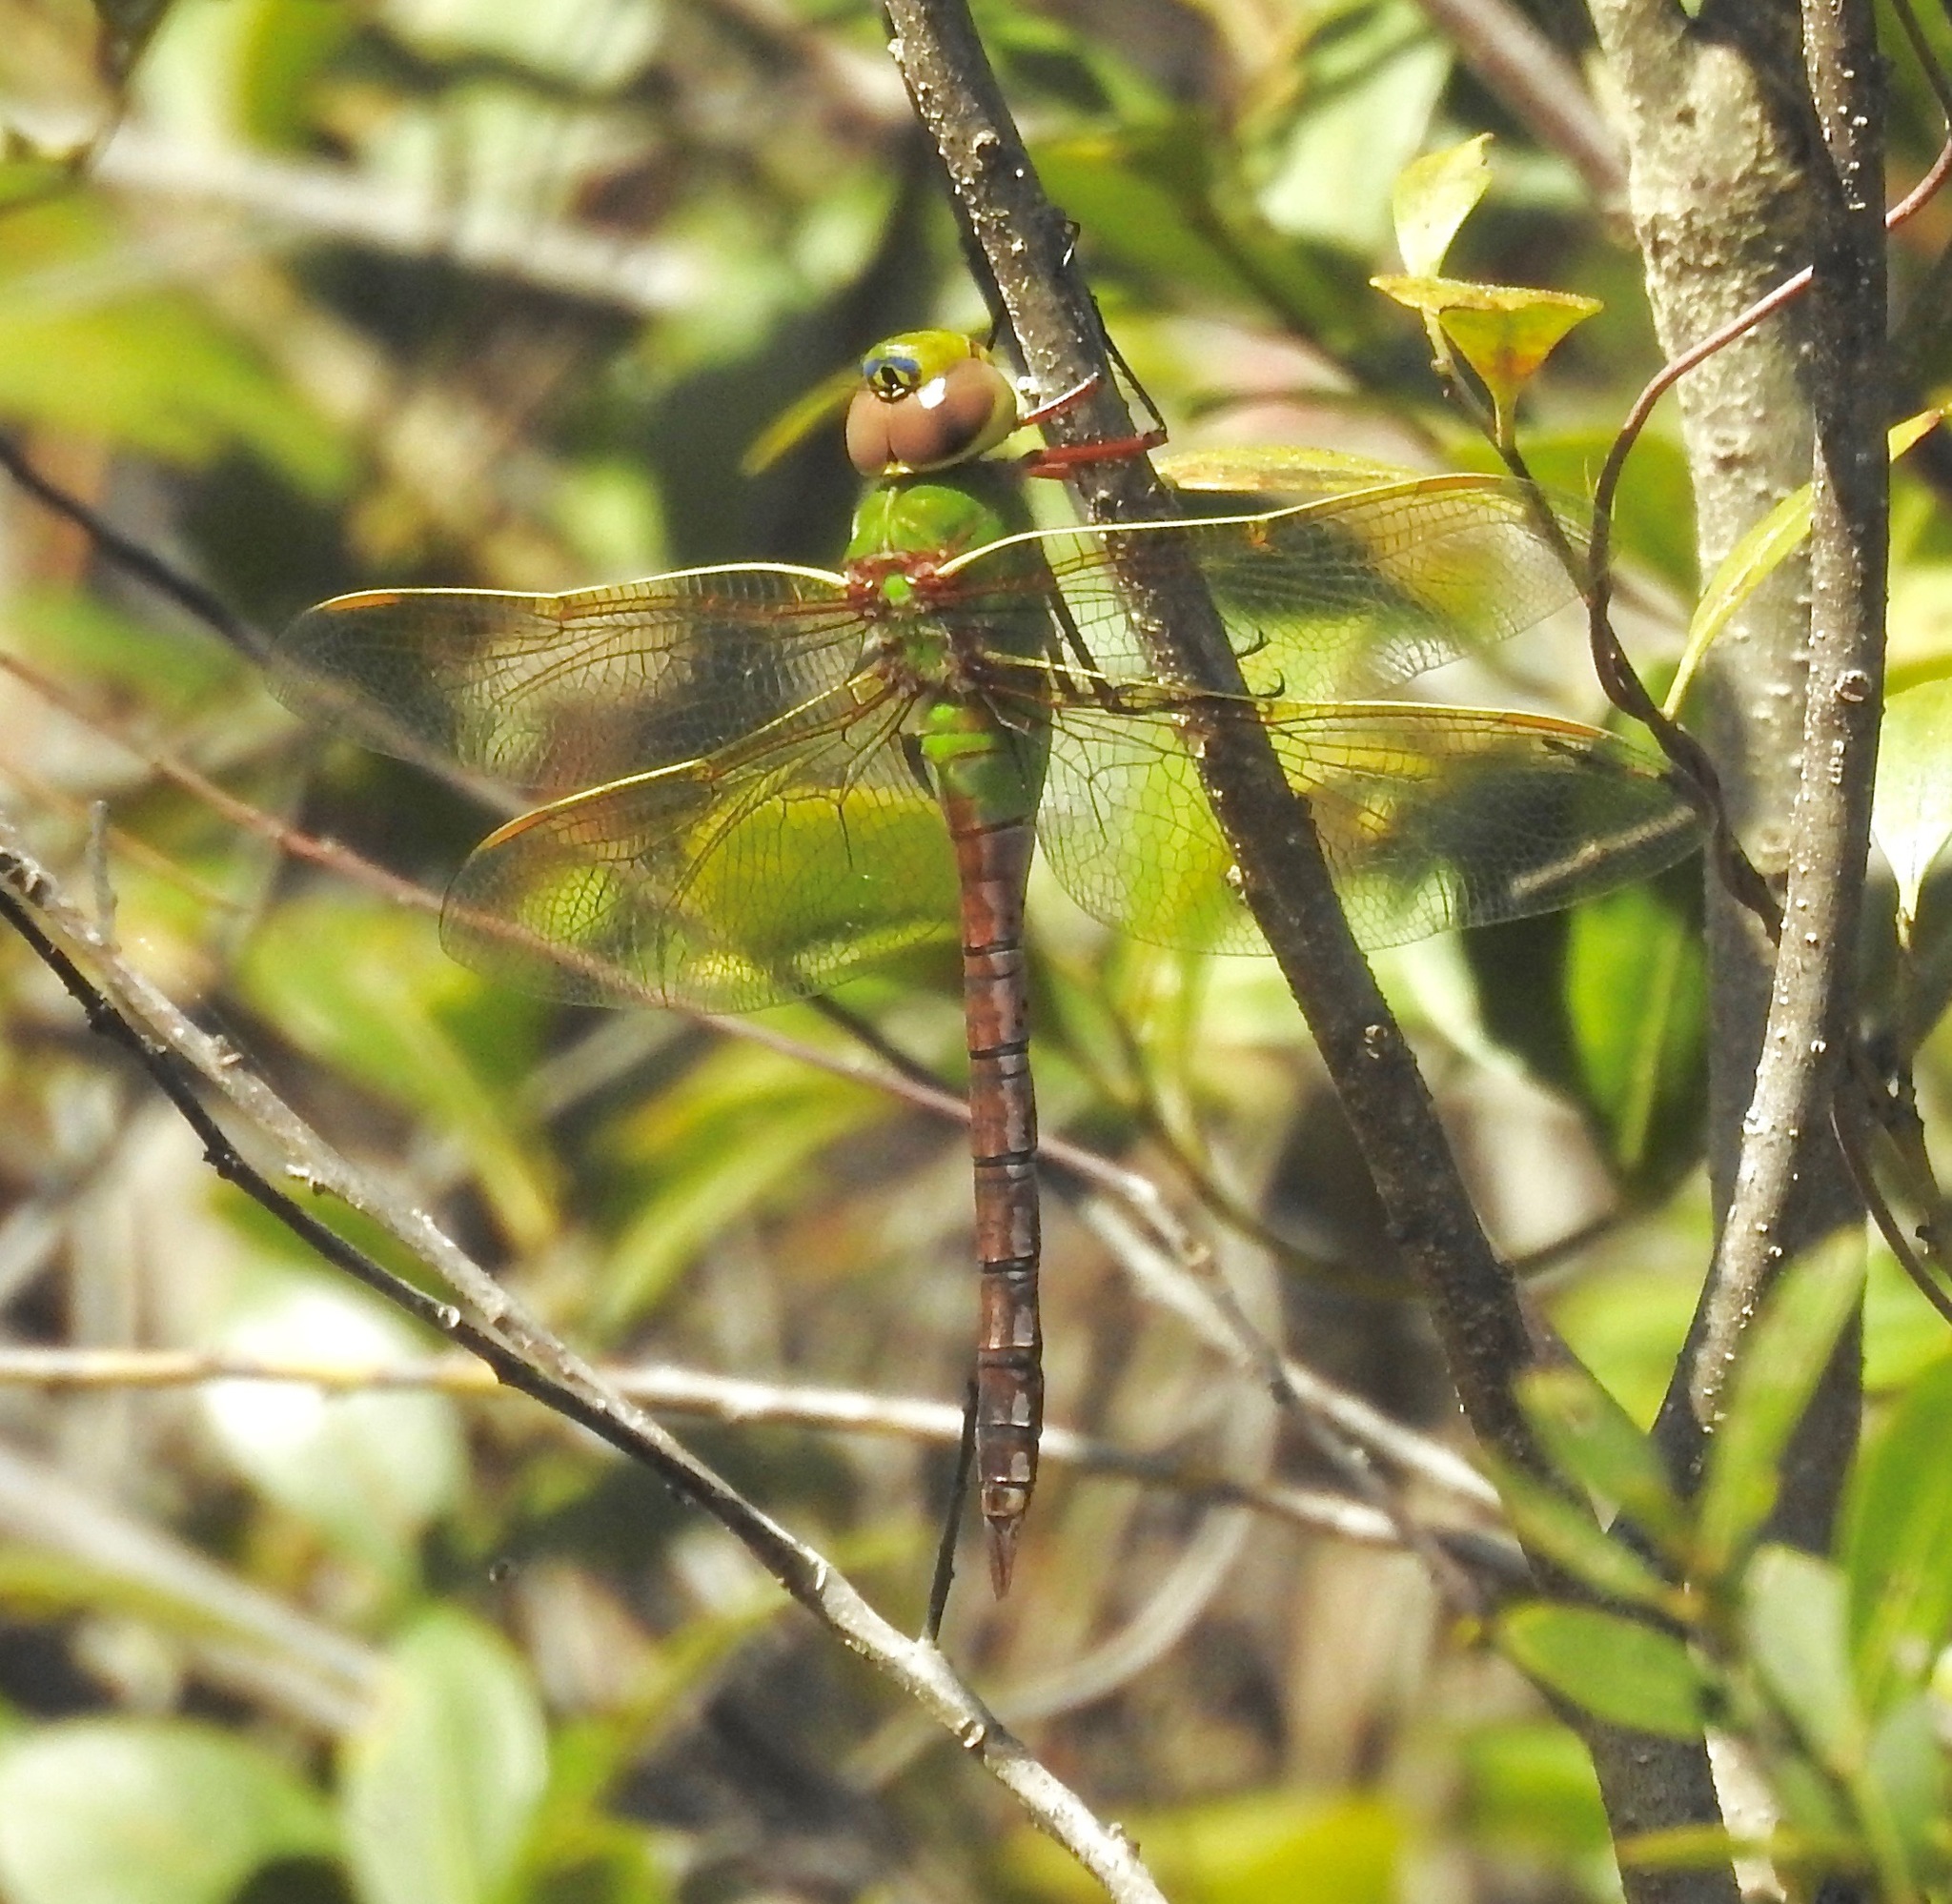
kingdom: Animalia
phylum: Arthropoda
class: Insecta
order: Odonata
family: Aeshnidae
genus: Anax
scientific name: Anax junius
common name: Common green darner
